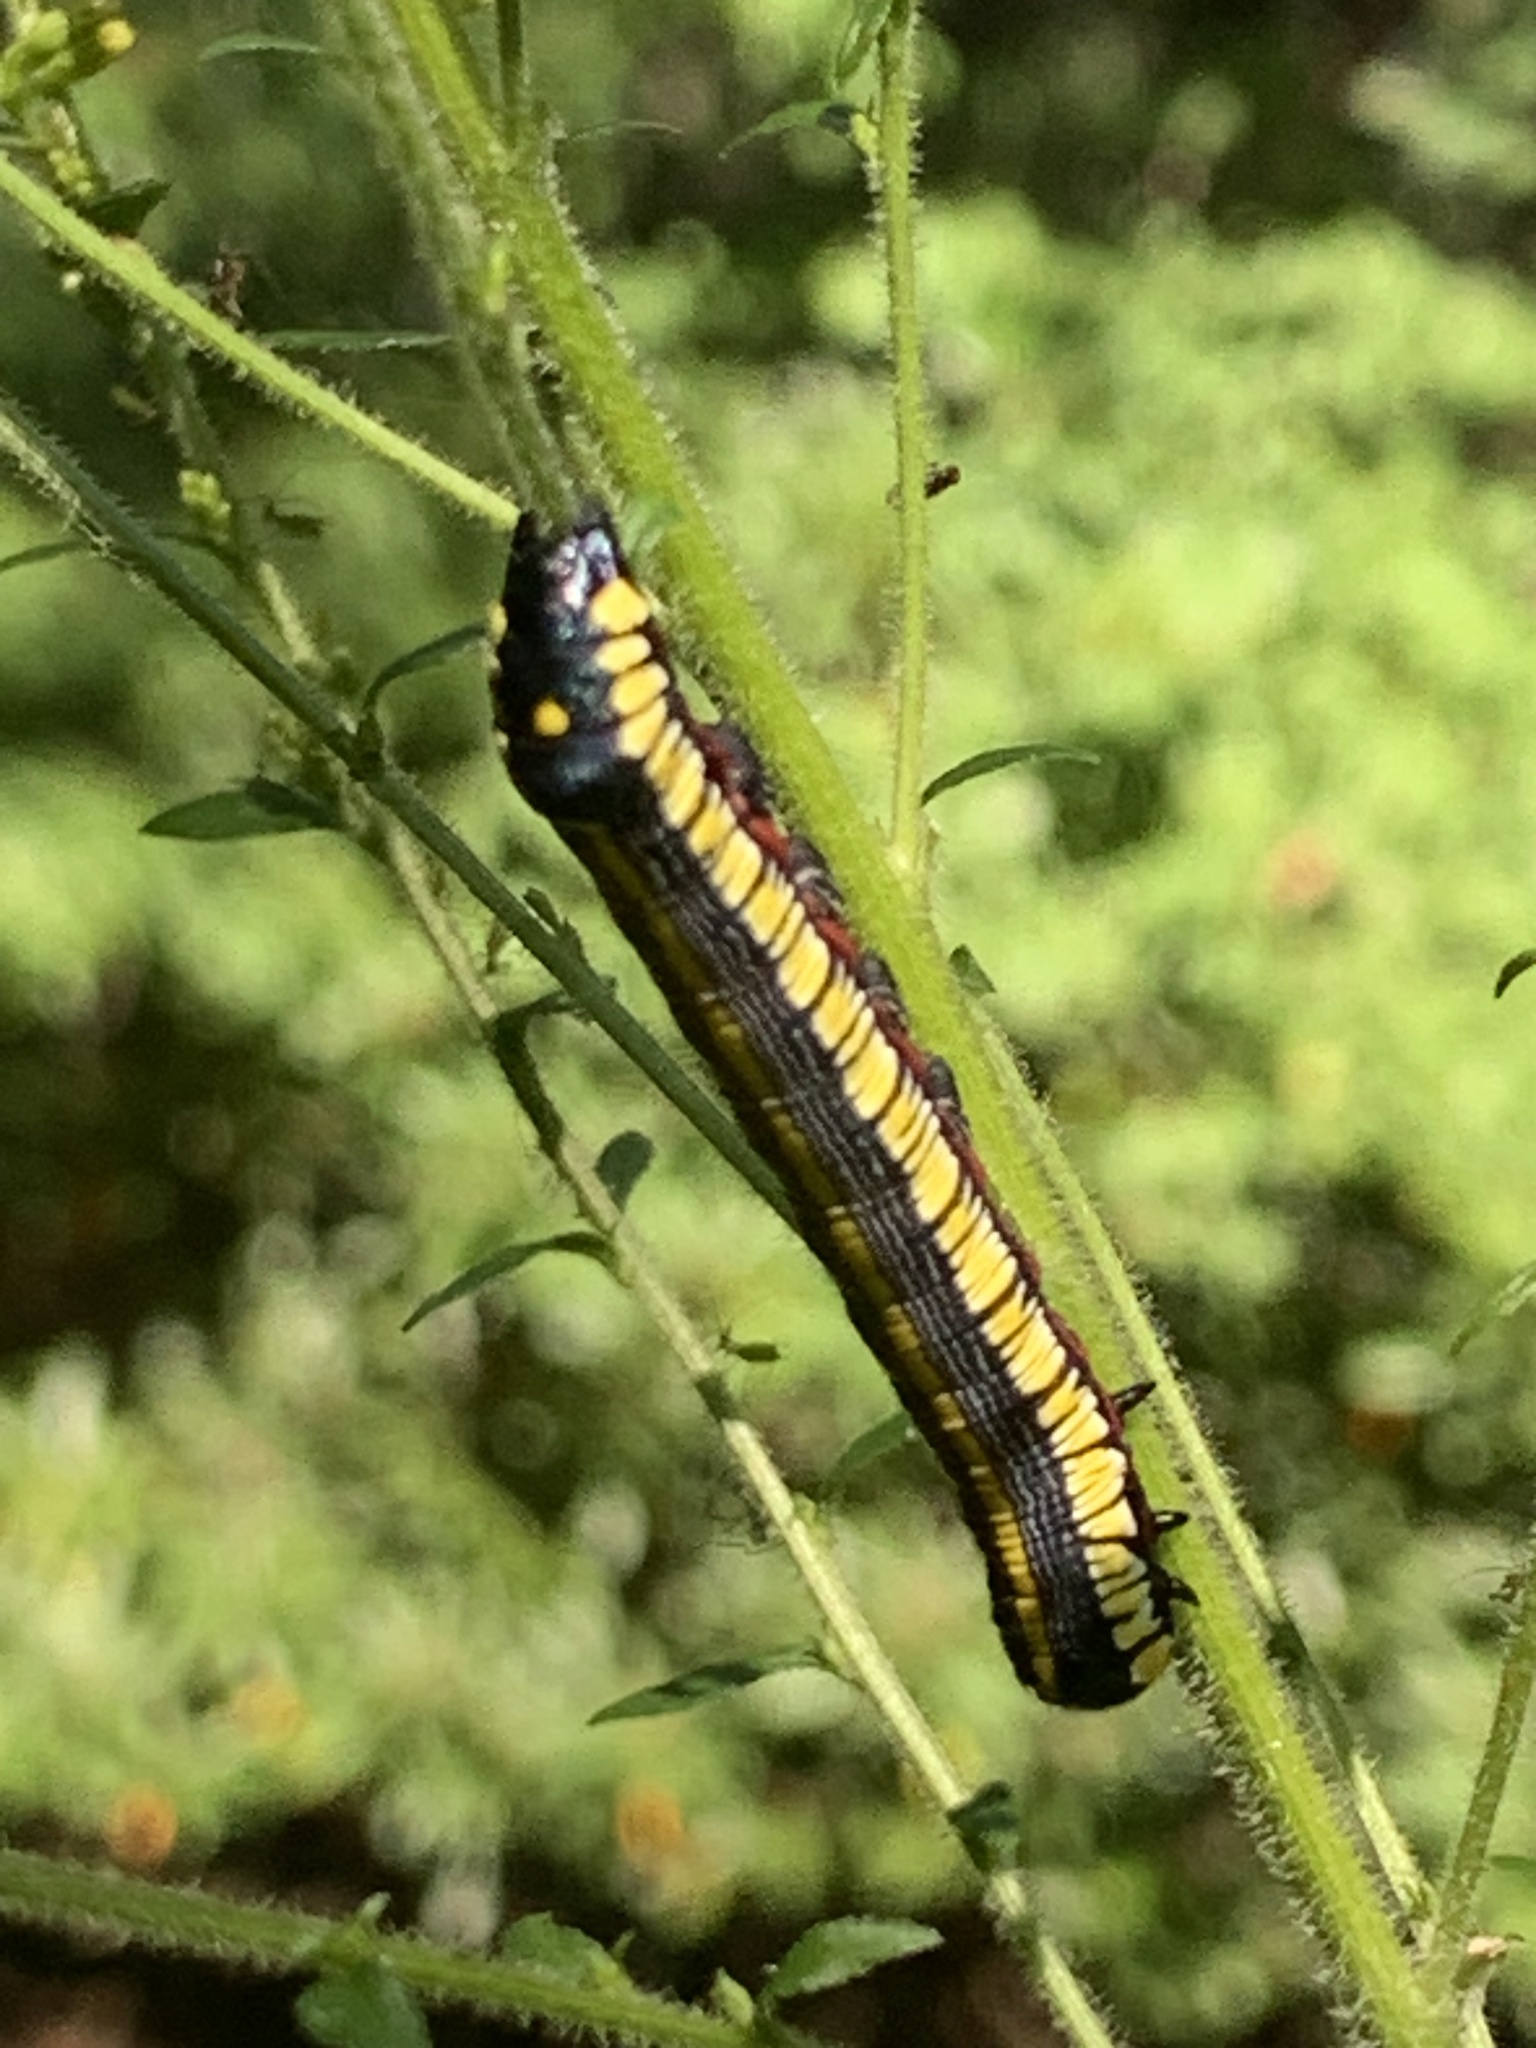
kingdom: Animalia
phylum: Arthropoda
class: Insecta
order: Lepidoptera
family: Noctuidae
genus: Cucullia
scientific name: Cucullia convexipennis
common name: Brown-hooded owlet
